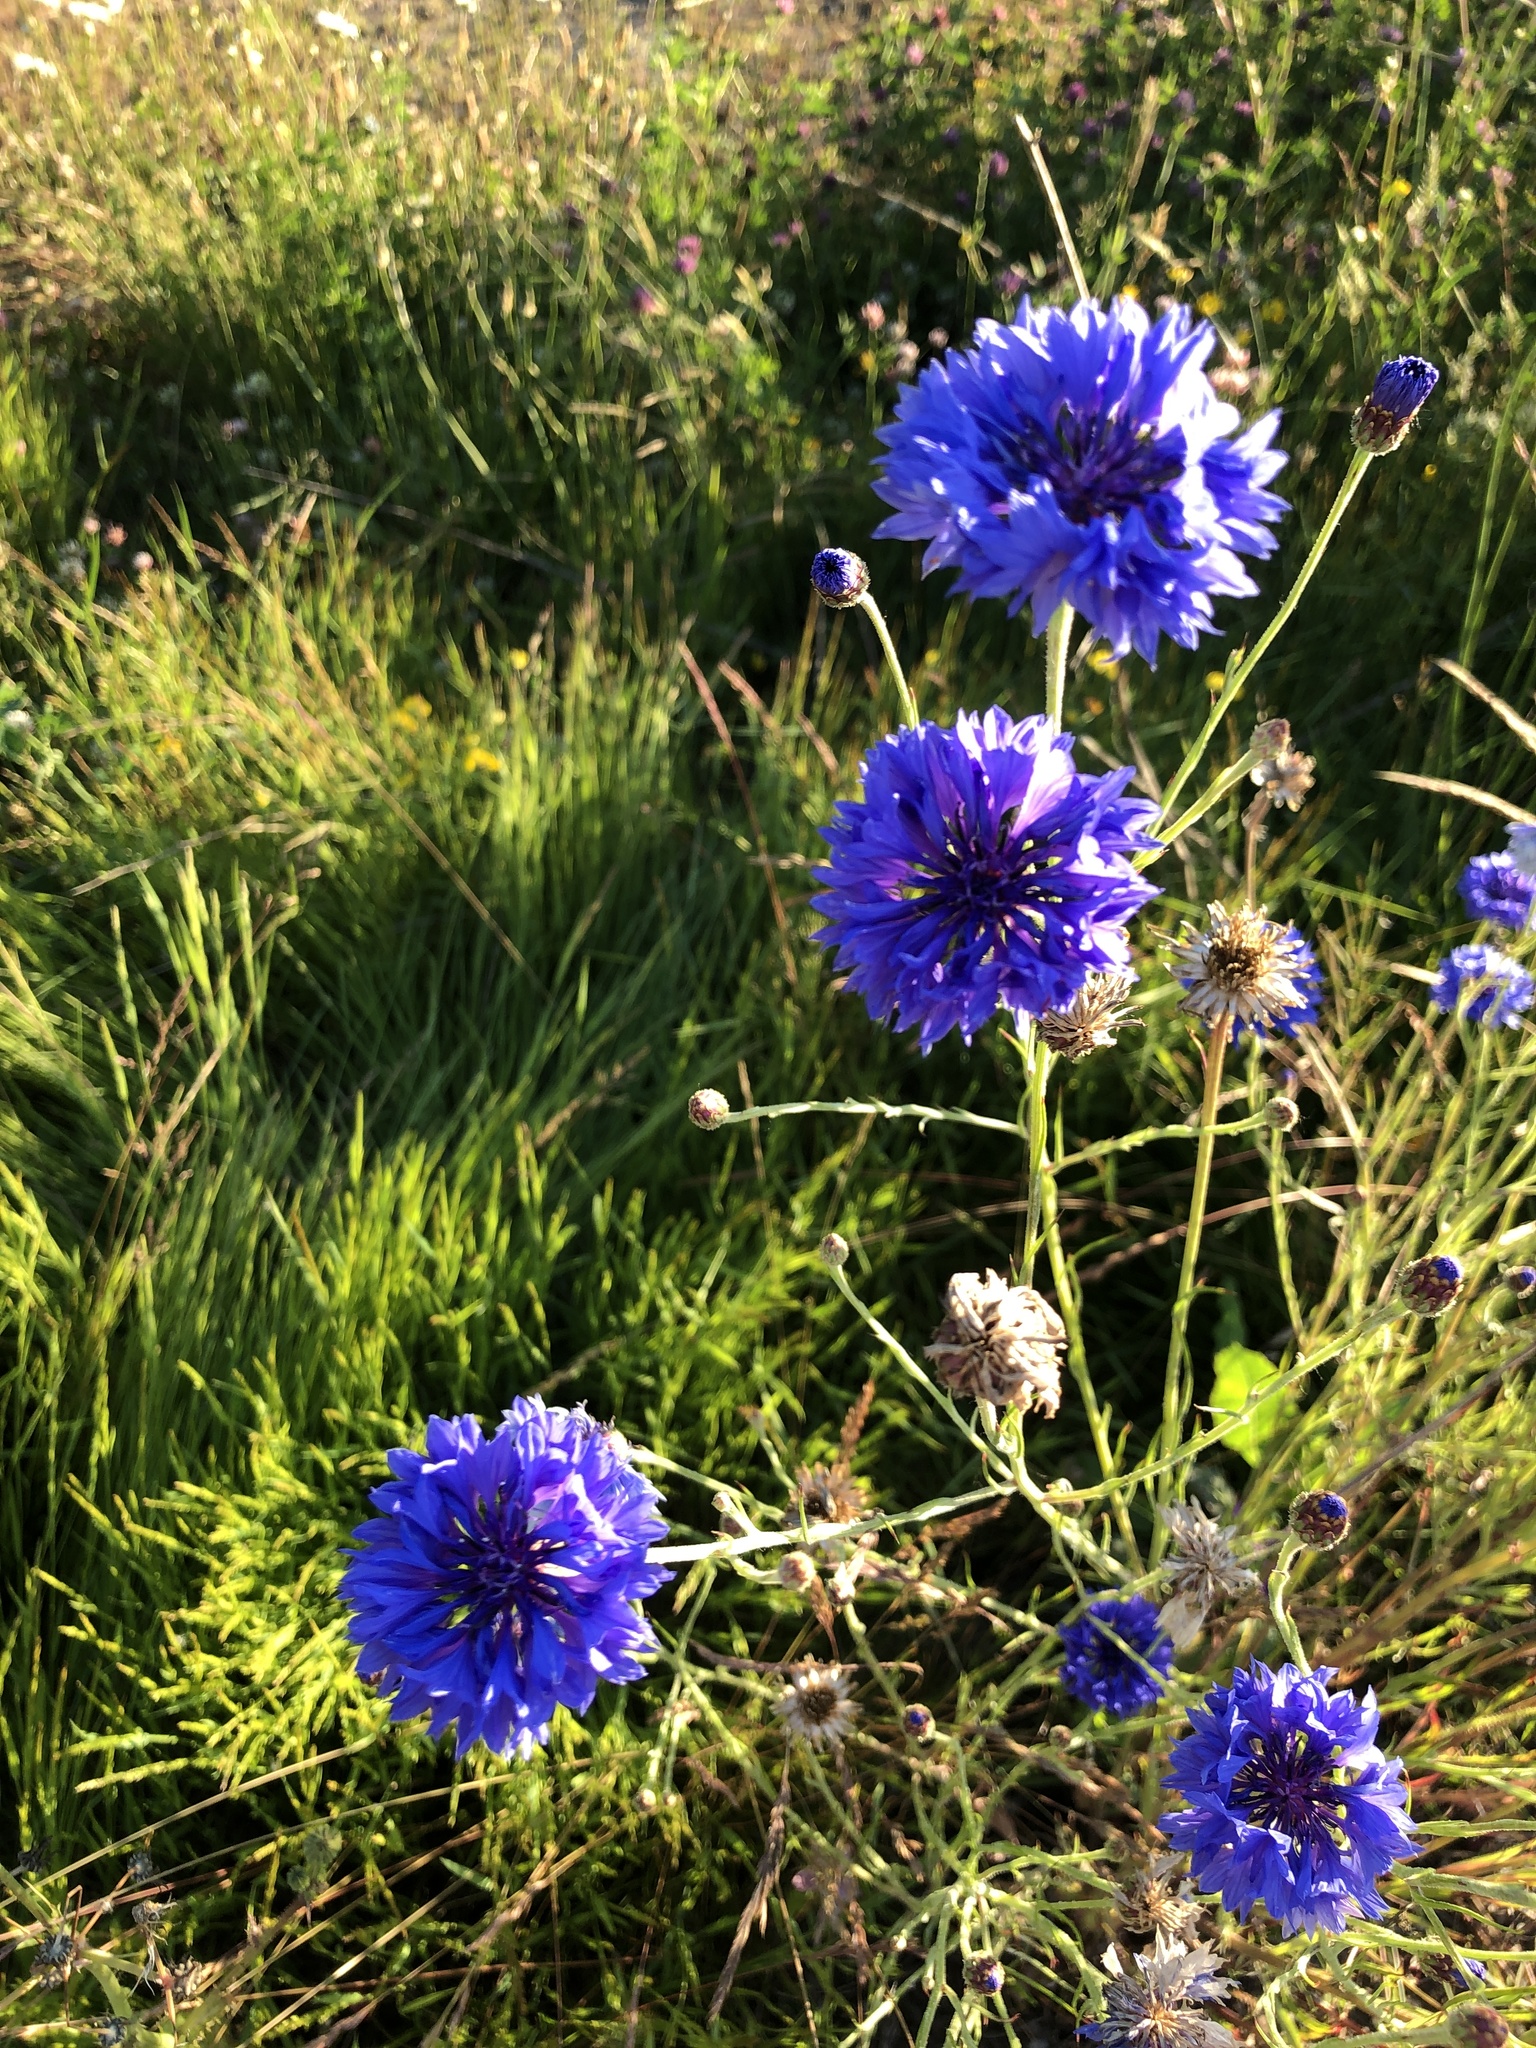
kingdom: Plantae
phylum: Tracheophyta
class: Magnoliopsida
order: Asterales
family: Asteraceae
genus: Centaurea
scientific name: Centaurea cyanus
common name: Cornflower
